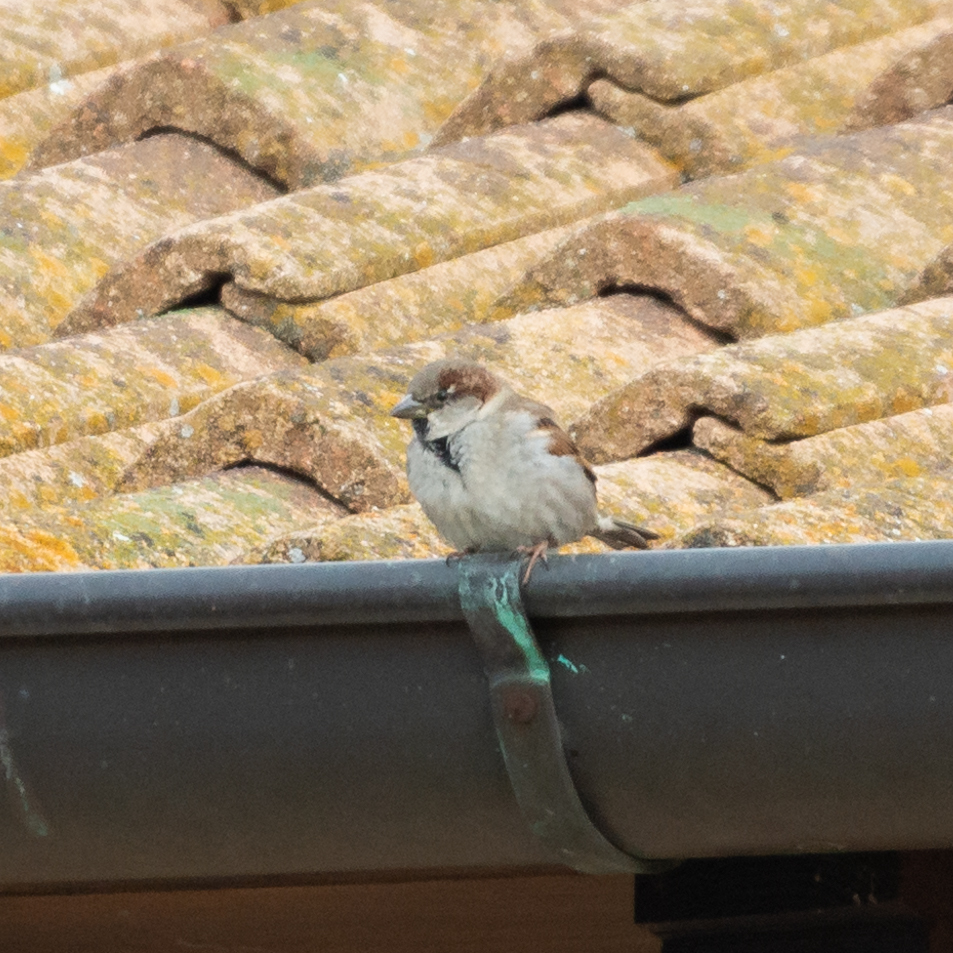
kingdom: Animalia
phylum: Chordata
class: Aves
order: Passeriformes
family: Passeridae
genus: Passer
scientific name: Passer domesticus
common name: House sparrow
